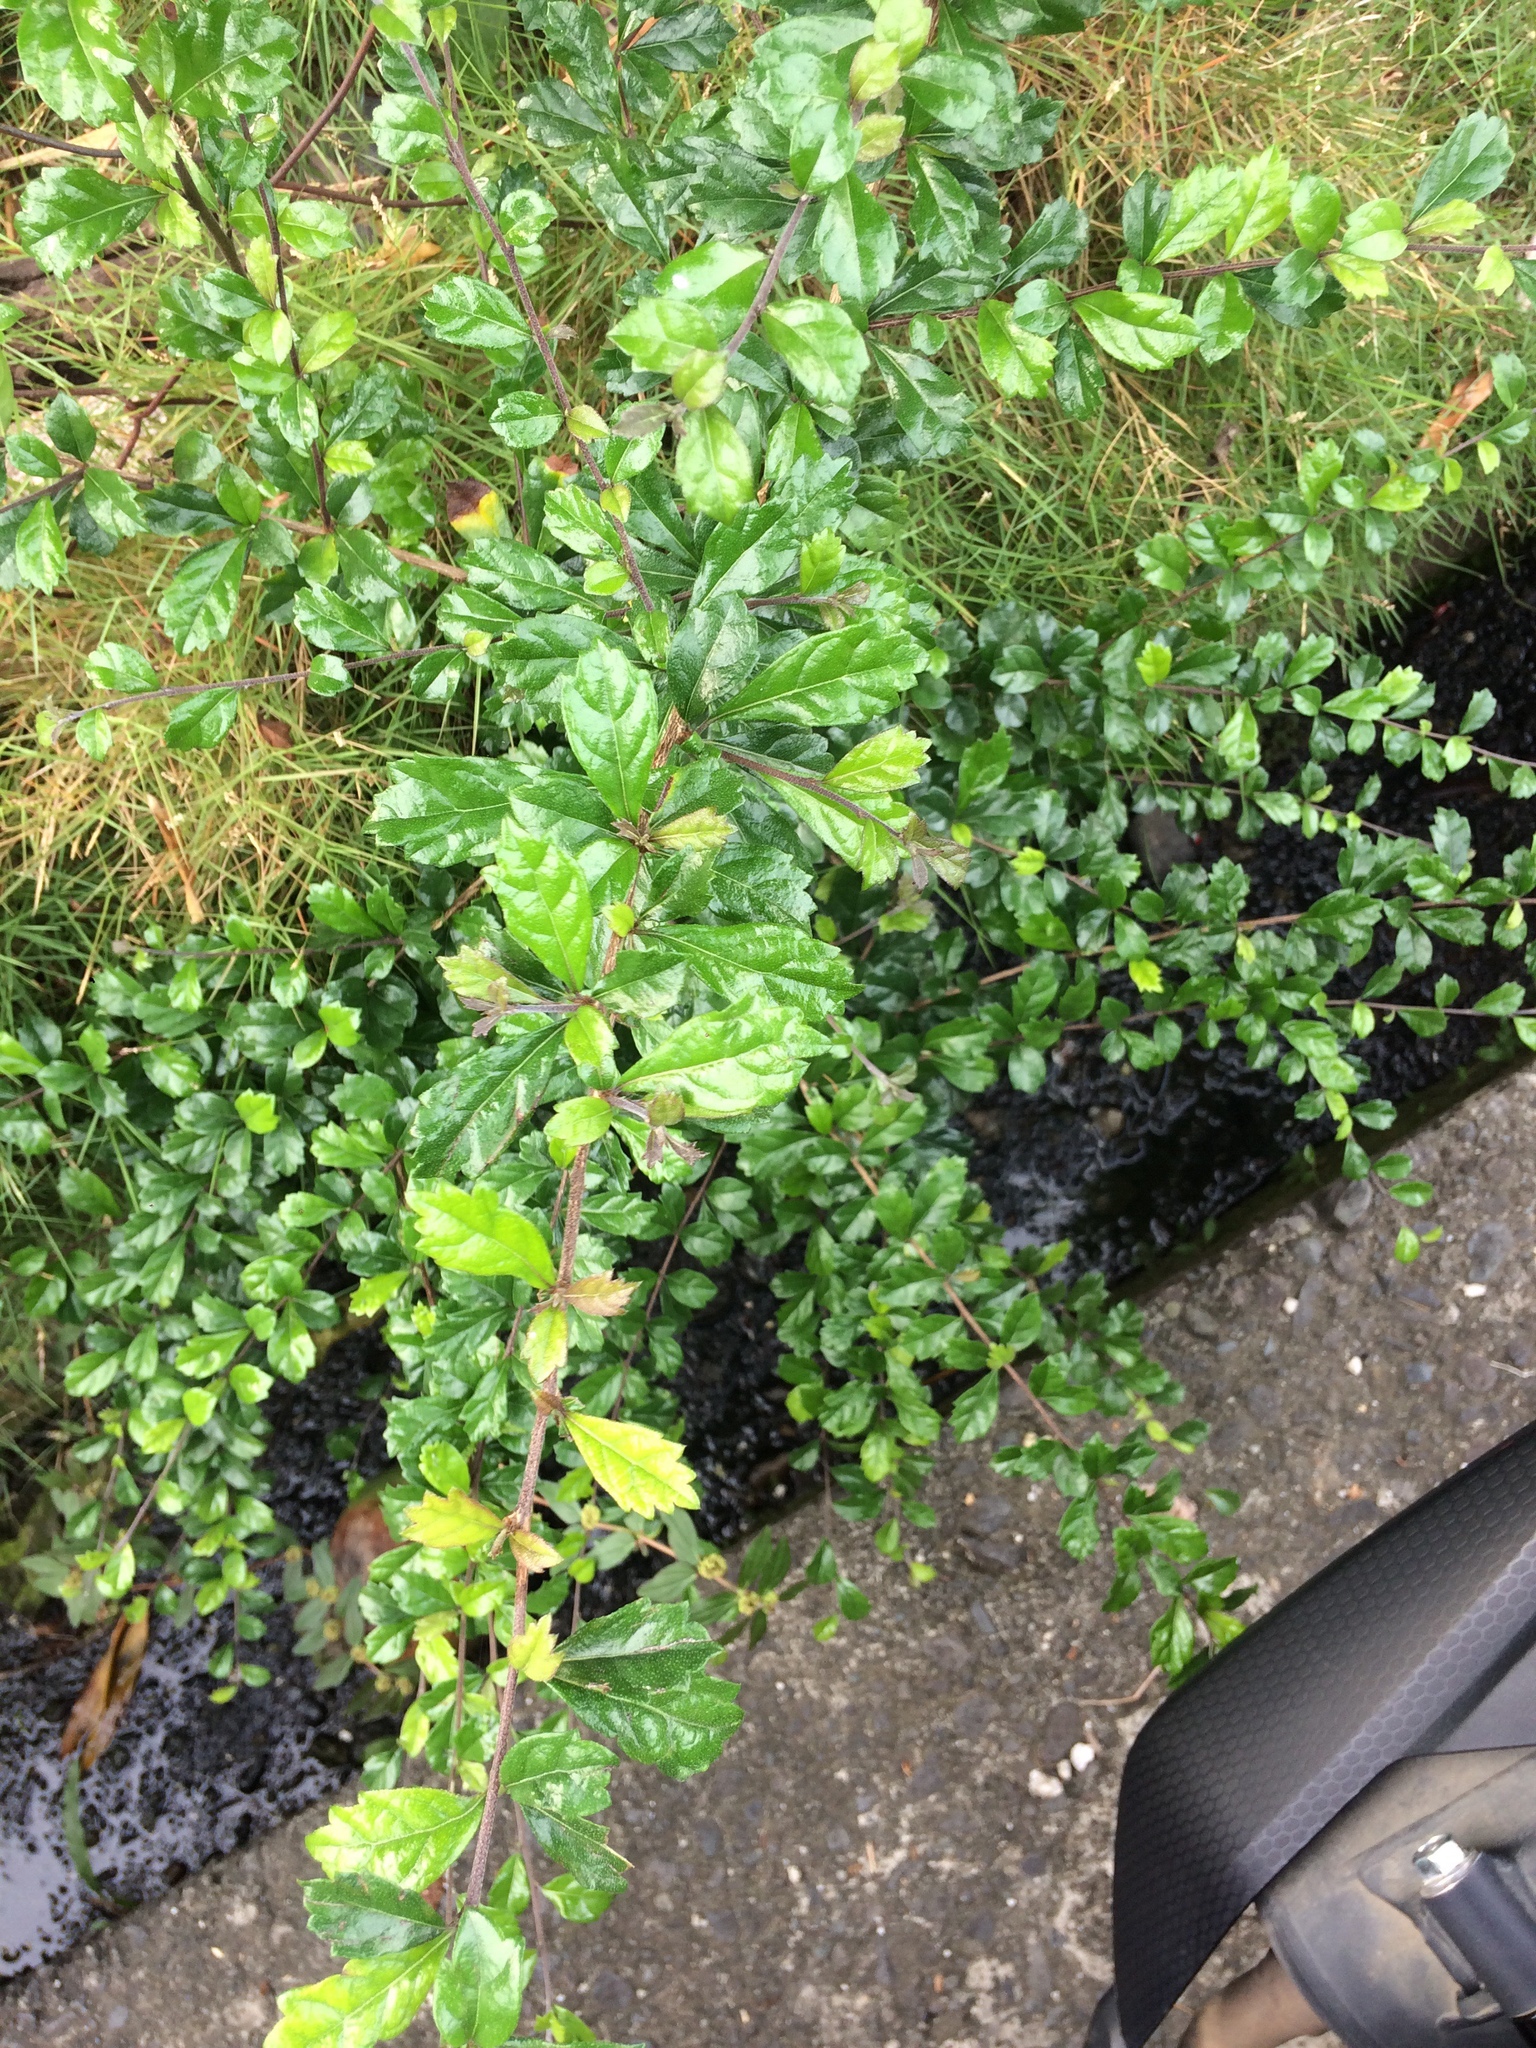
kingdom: Plantae
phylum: Tracheophyta
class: Magnoliopsida
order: Boraginales
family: Ehretiaceae
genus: Ehretia
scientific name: Ehretia microphylla
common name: Fukien-tea
